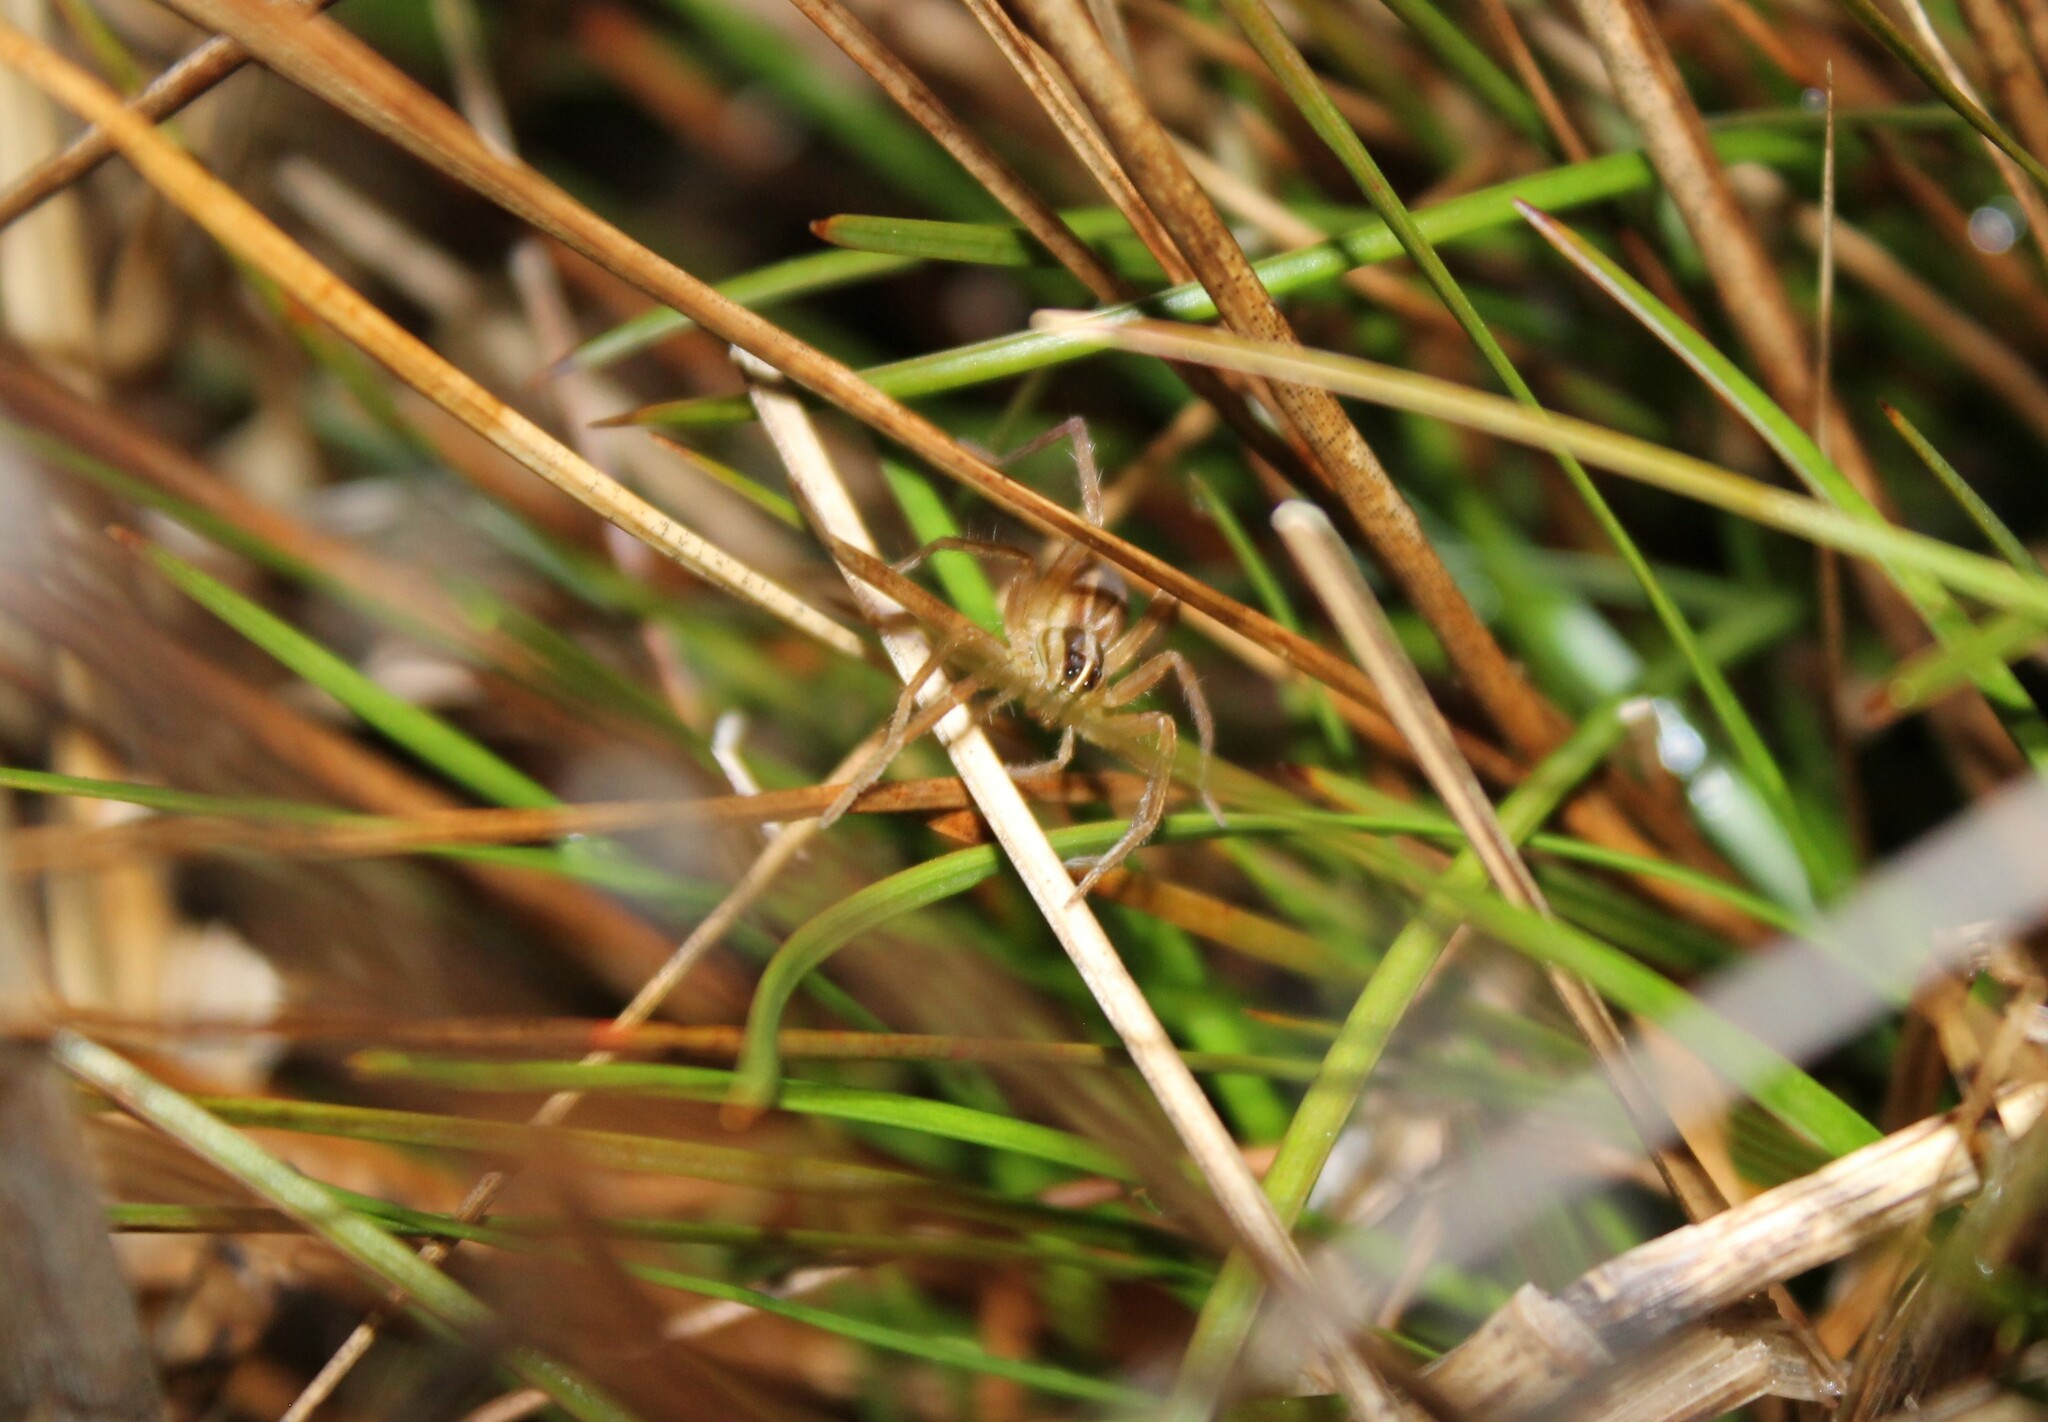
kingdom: Animalia
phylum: Arthropoda
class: Arachnida
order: Araneae
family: Lycosidae
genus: Rabidosa
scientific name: Rabidosa
